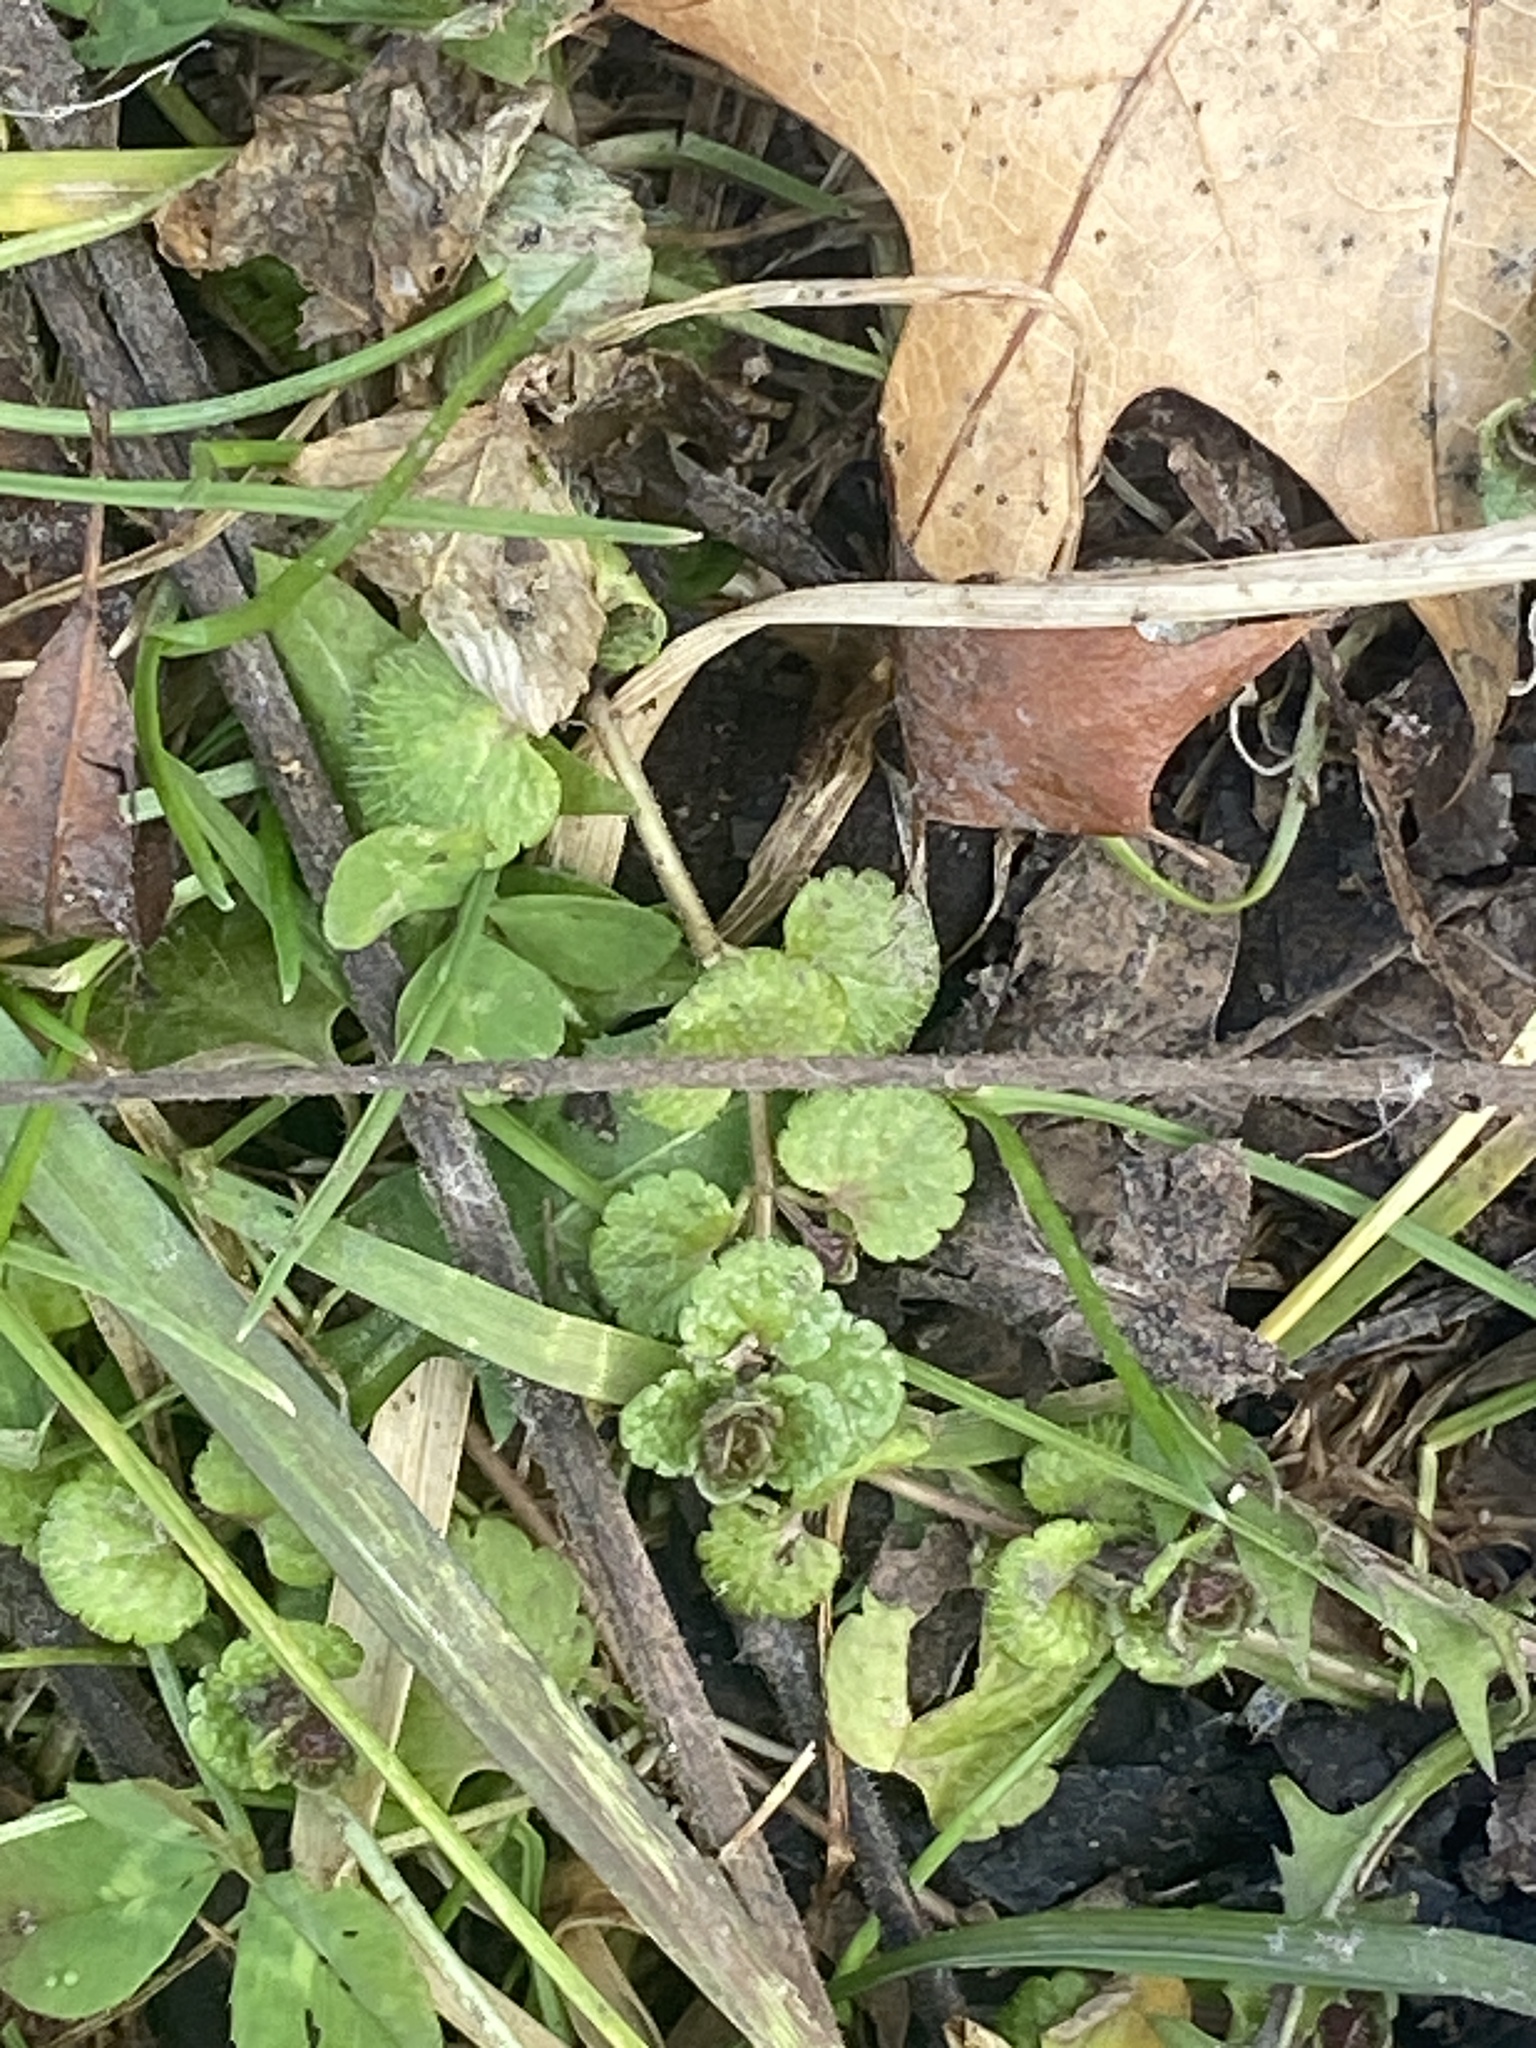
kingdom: Plantae
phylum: Tracheophyta
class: Magnoliopsida
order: Lamiales
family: Plantaginaceae
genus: Veronica
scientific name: Veronica filiformis
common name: Slender speedwell
